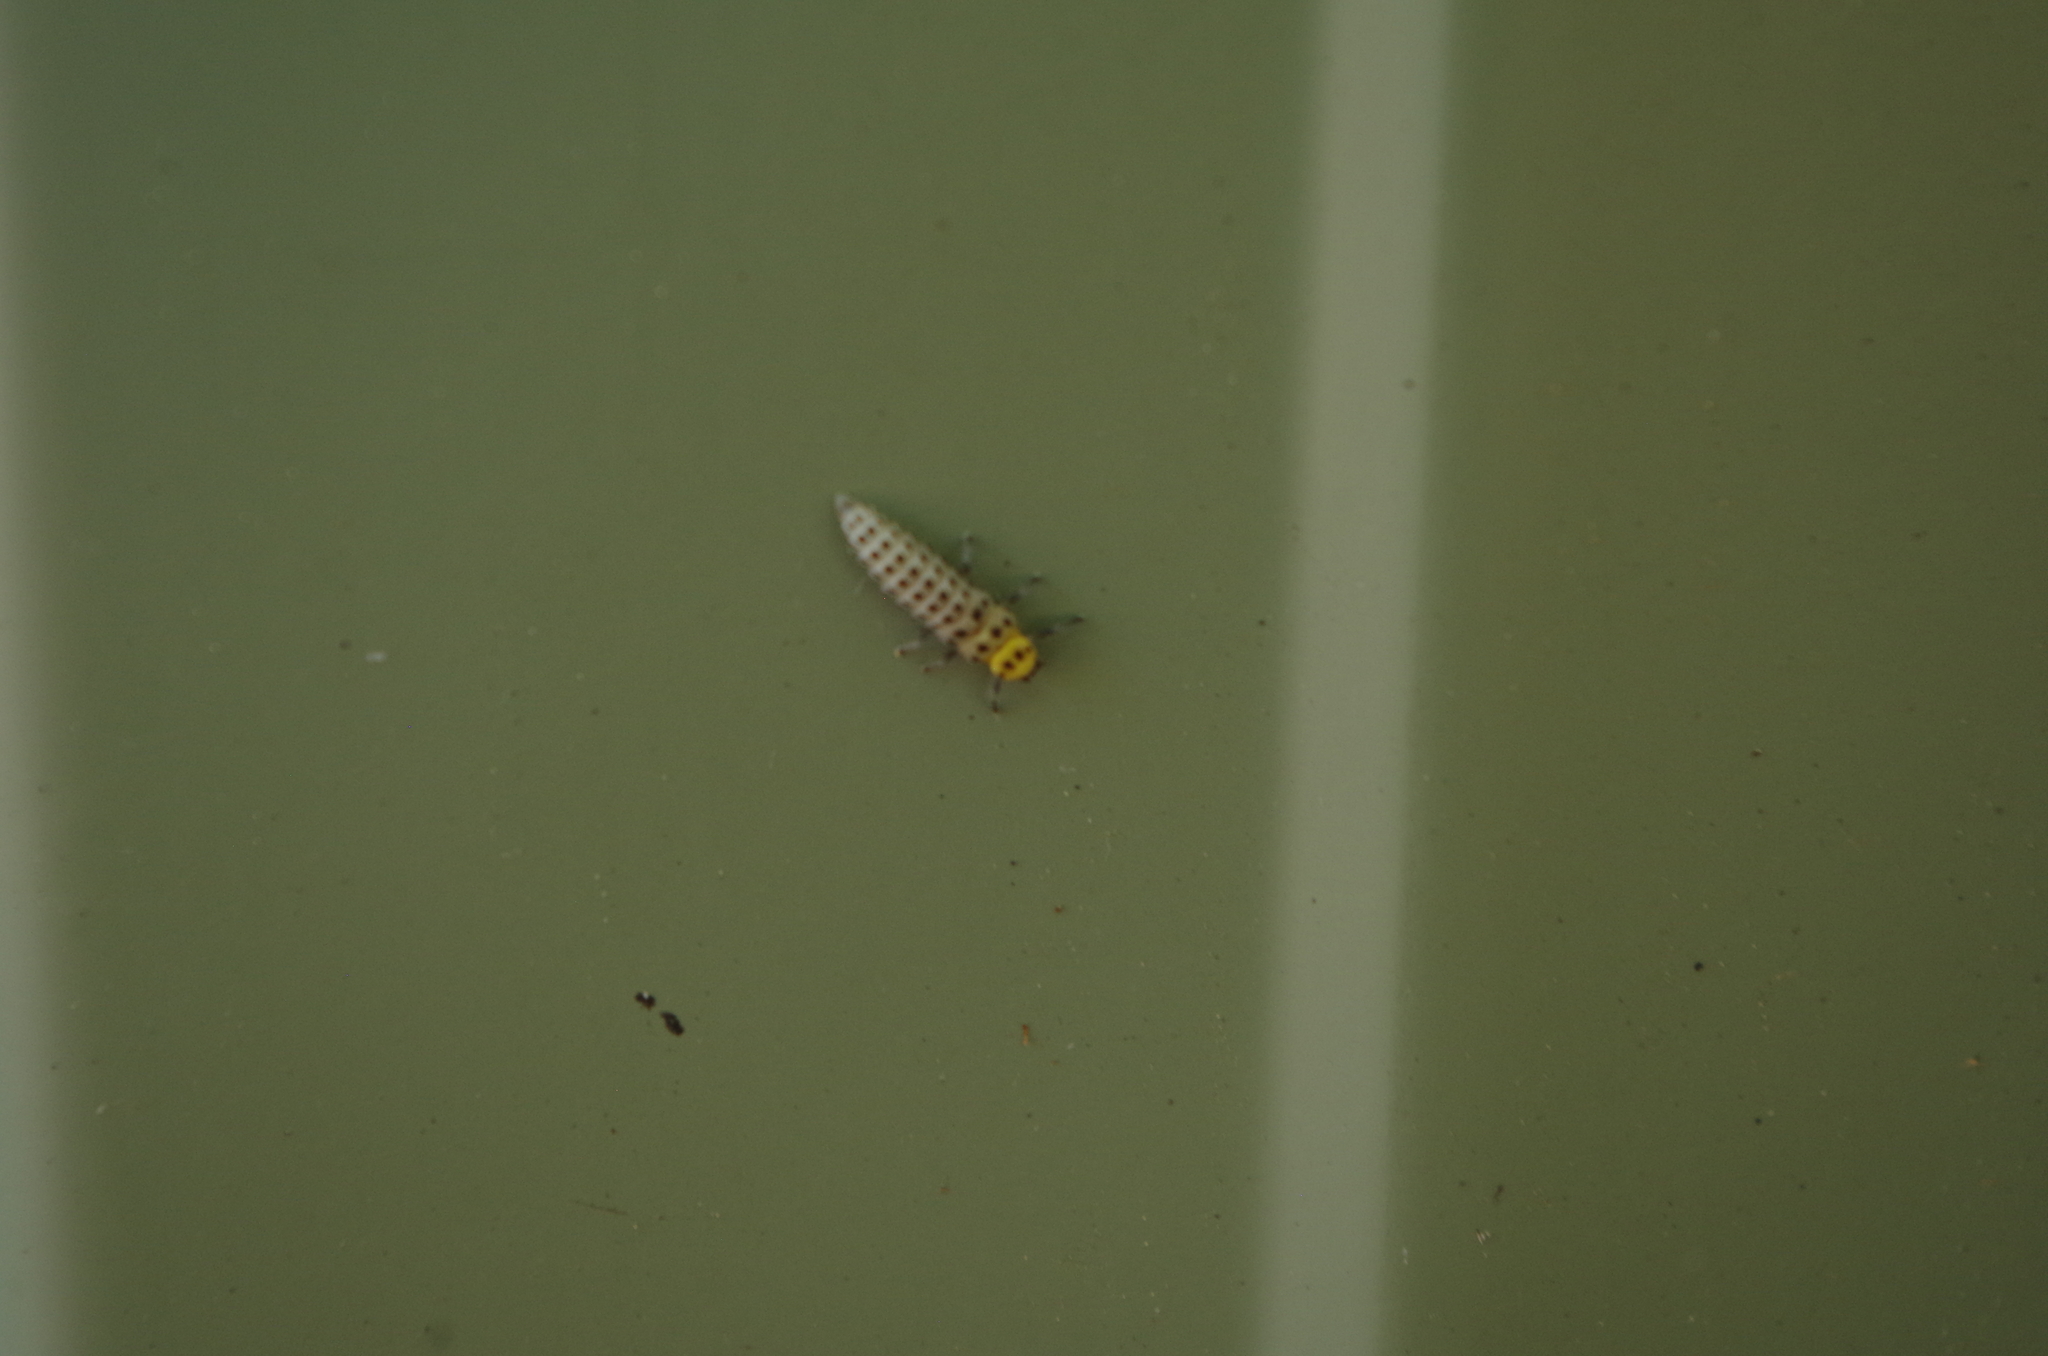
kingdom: Animalia
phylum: Arthropoda
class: Insecta
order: Coleoptera
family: Coccinellidae
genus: Illeis
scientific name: Illeis galbula
